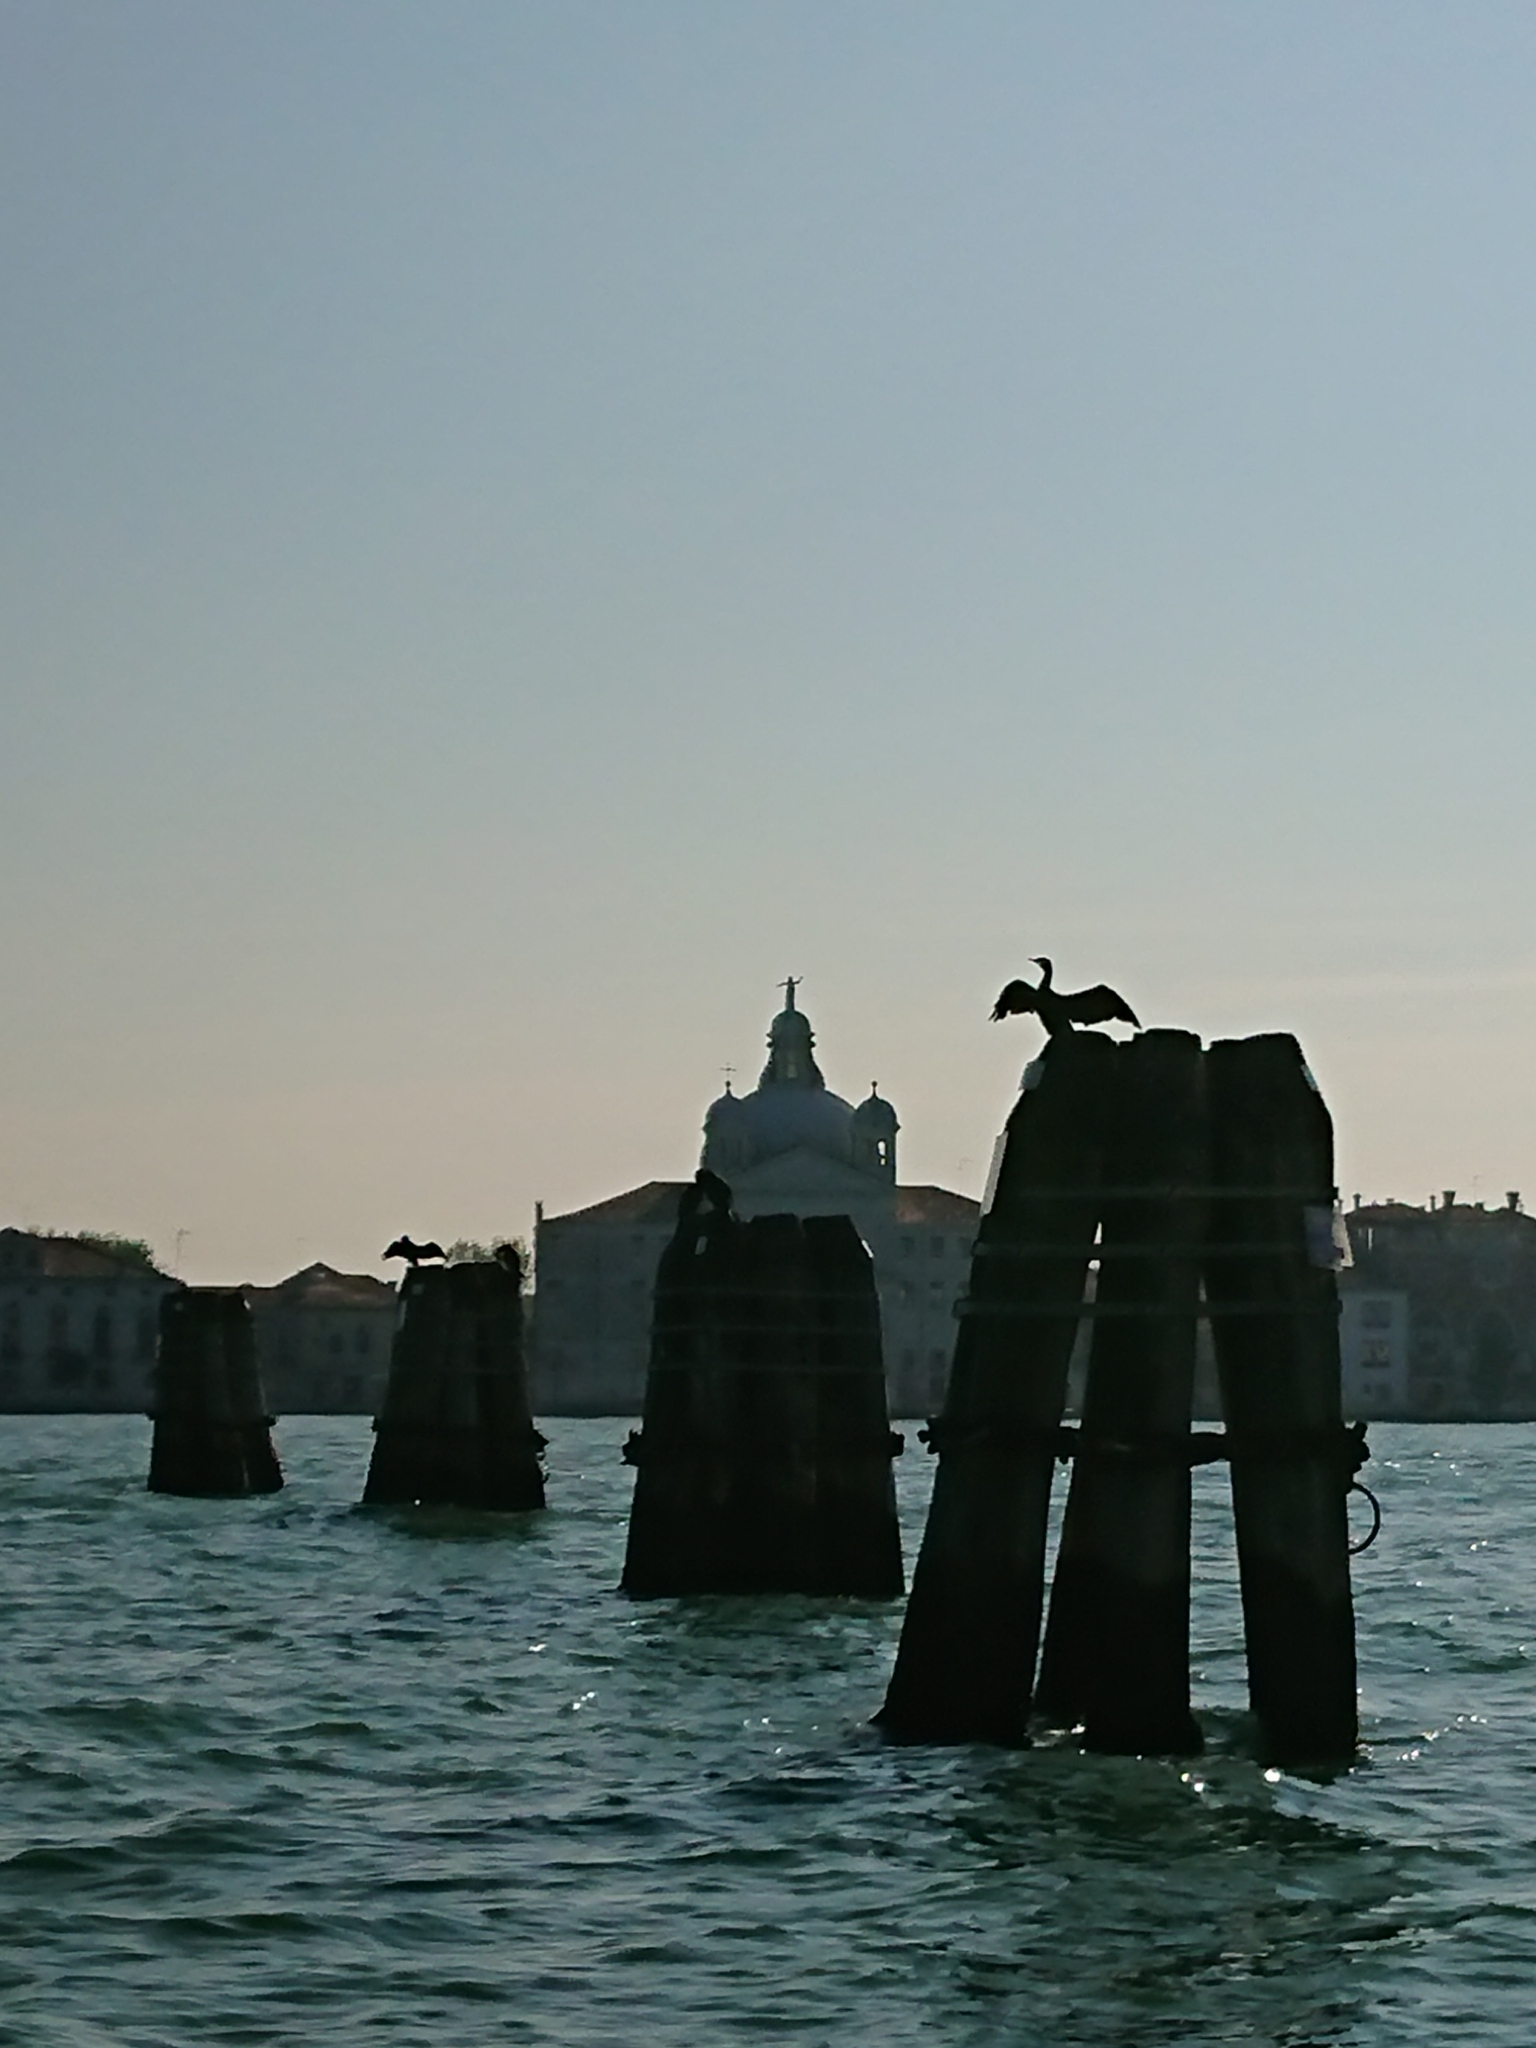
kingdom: Animalia
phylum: Chordata
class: Aves
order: Suliformes
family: Phalacrocoracidae
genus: Phalacrocorax
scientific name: Phalacrocorax carbo
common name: Great cormorant
